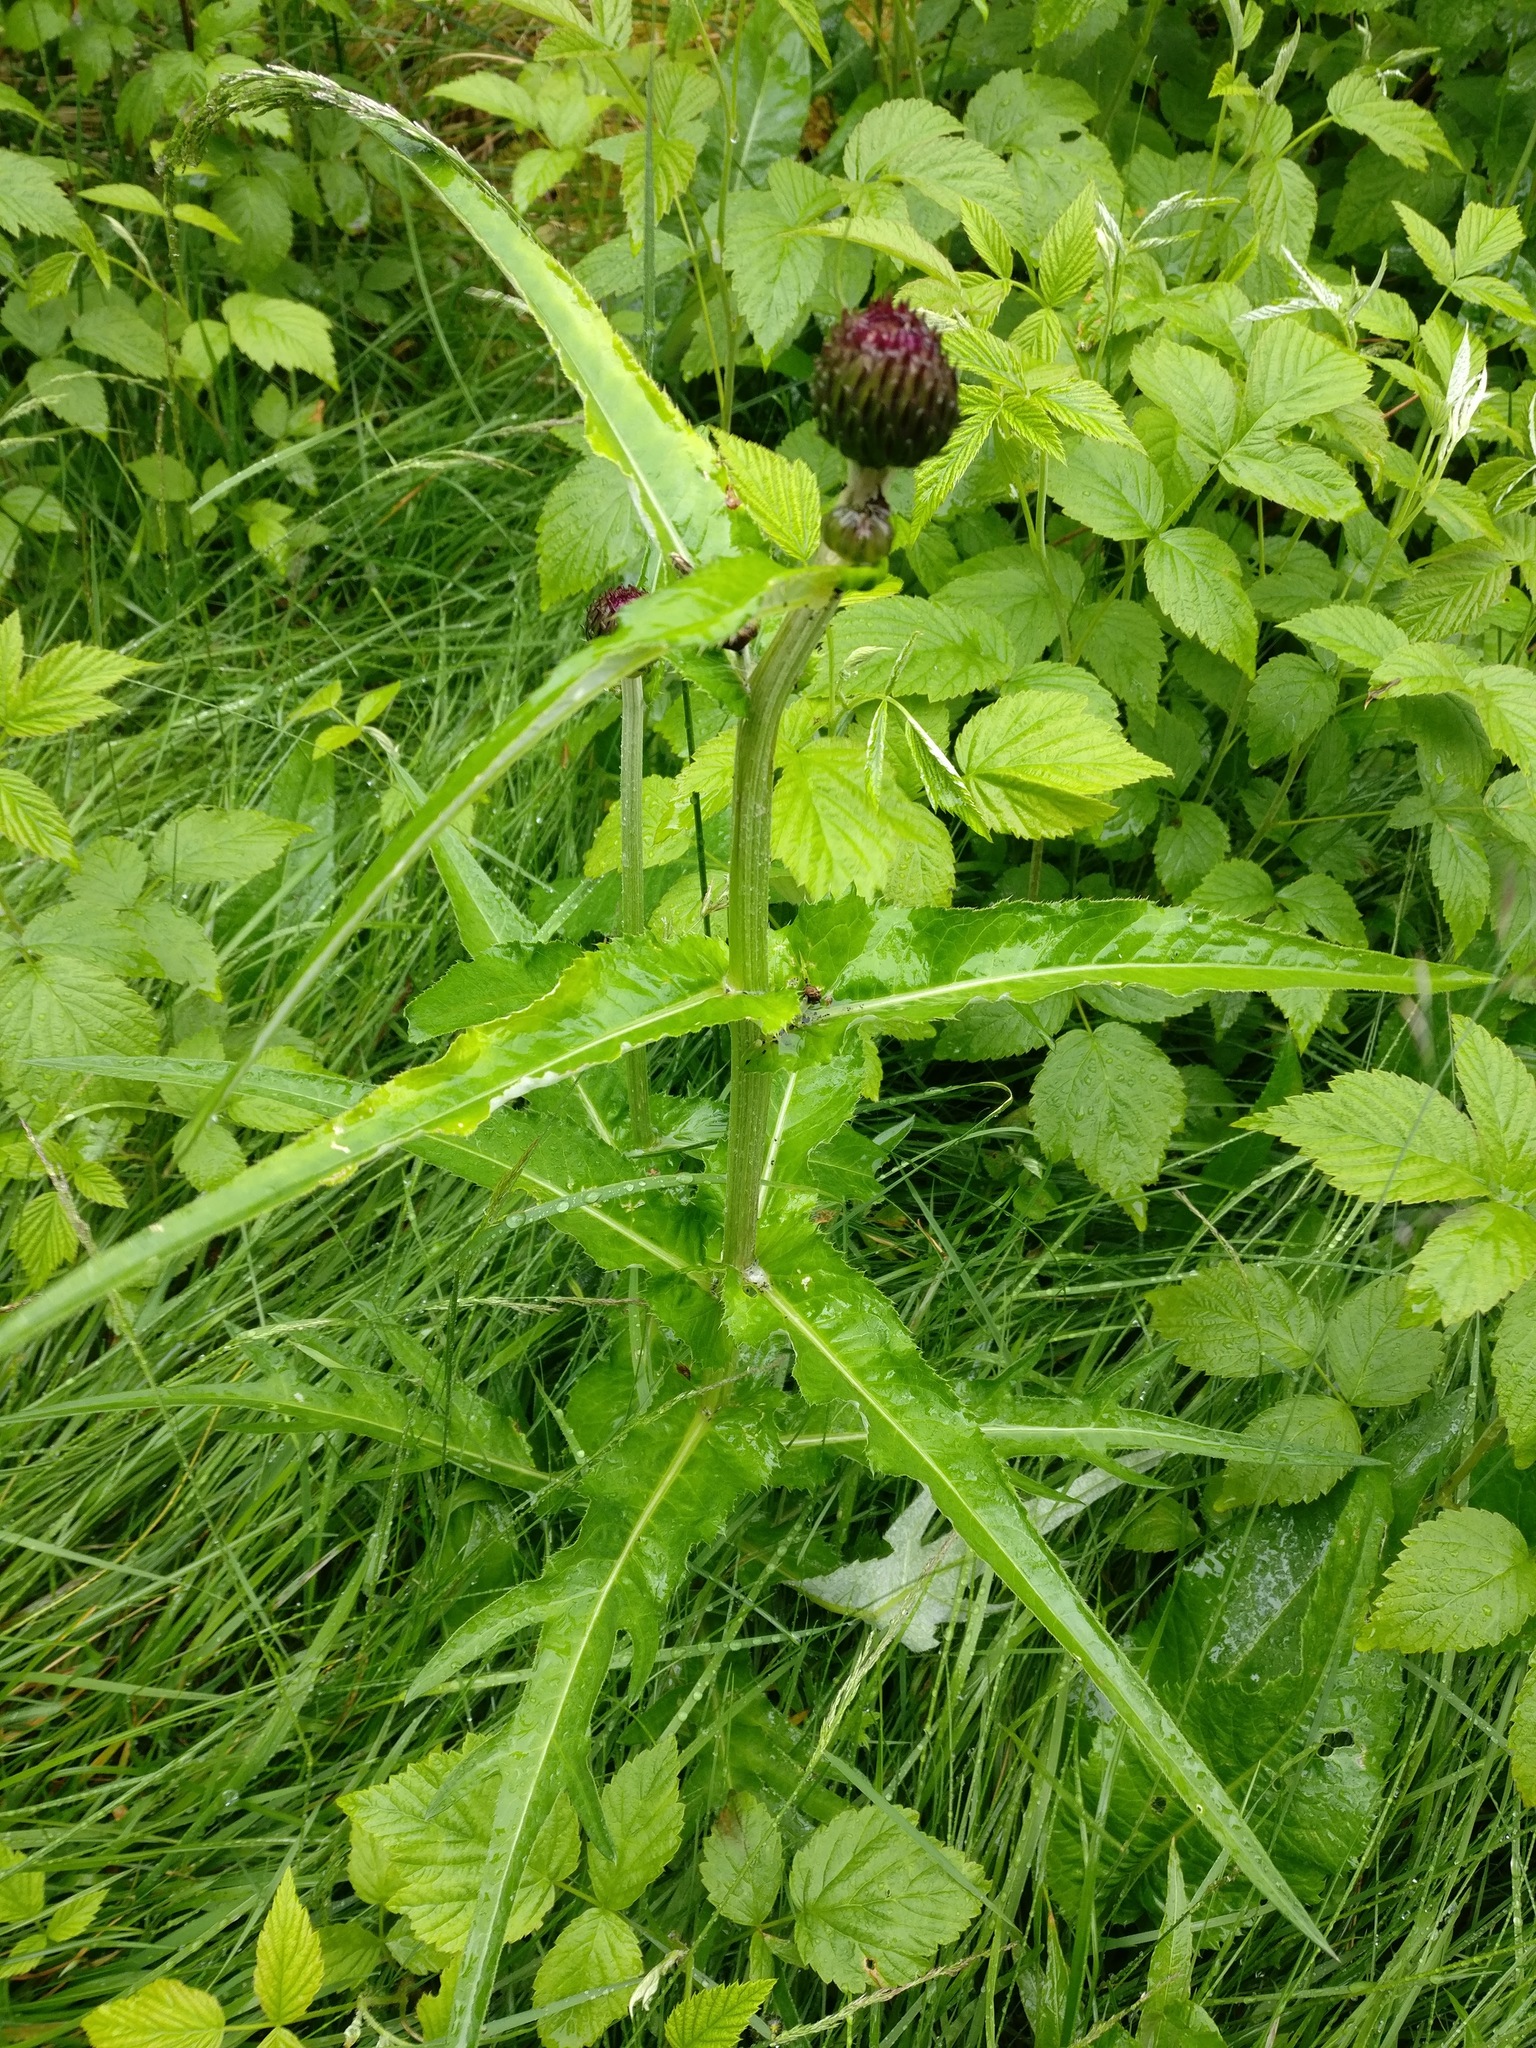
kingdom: Plantae
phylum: Tracheophyta
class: Magnoliopsida
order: Asterales
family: Asteraceae
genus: Cirsium
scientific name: Cirsium heterophyllum
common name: Melancholy thistle
